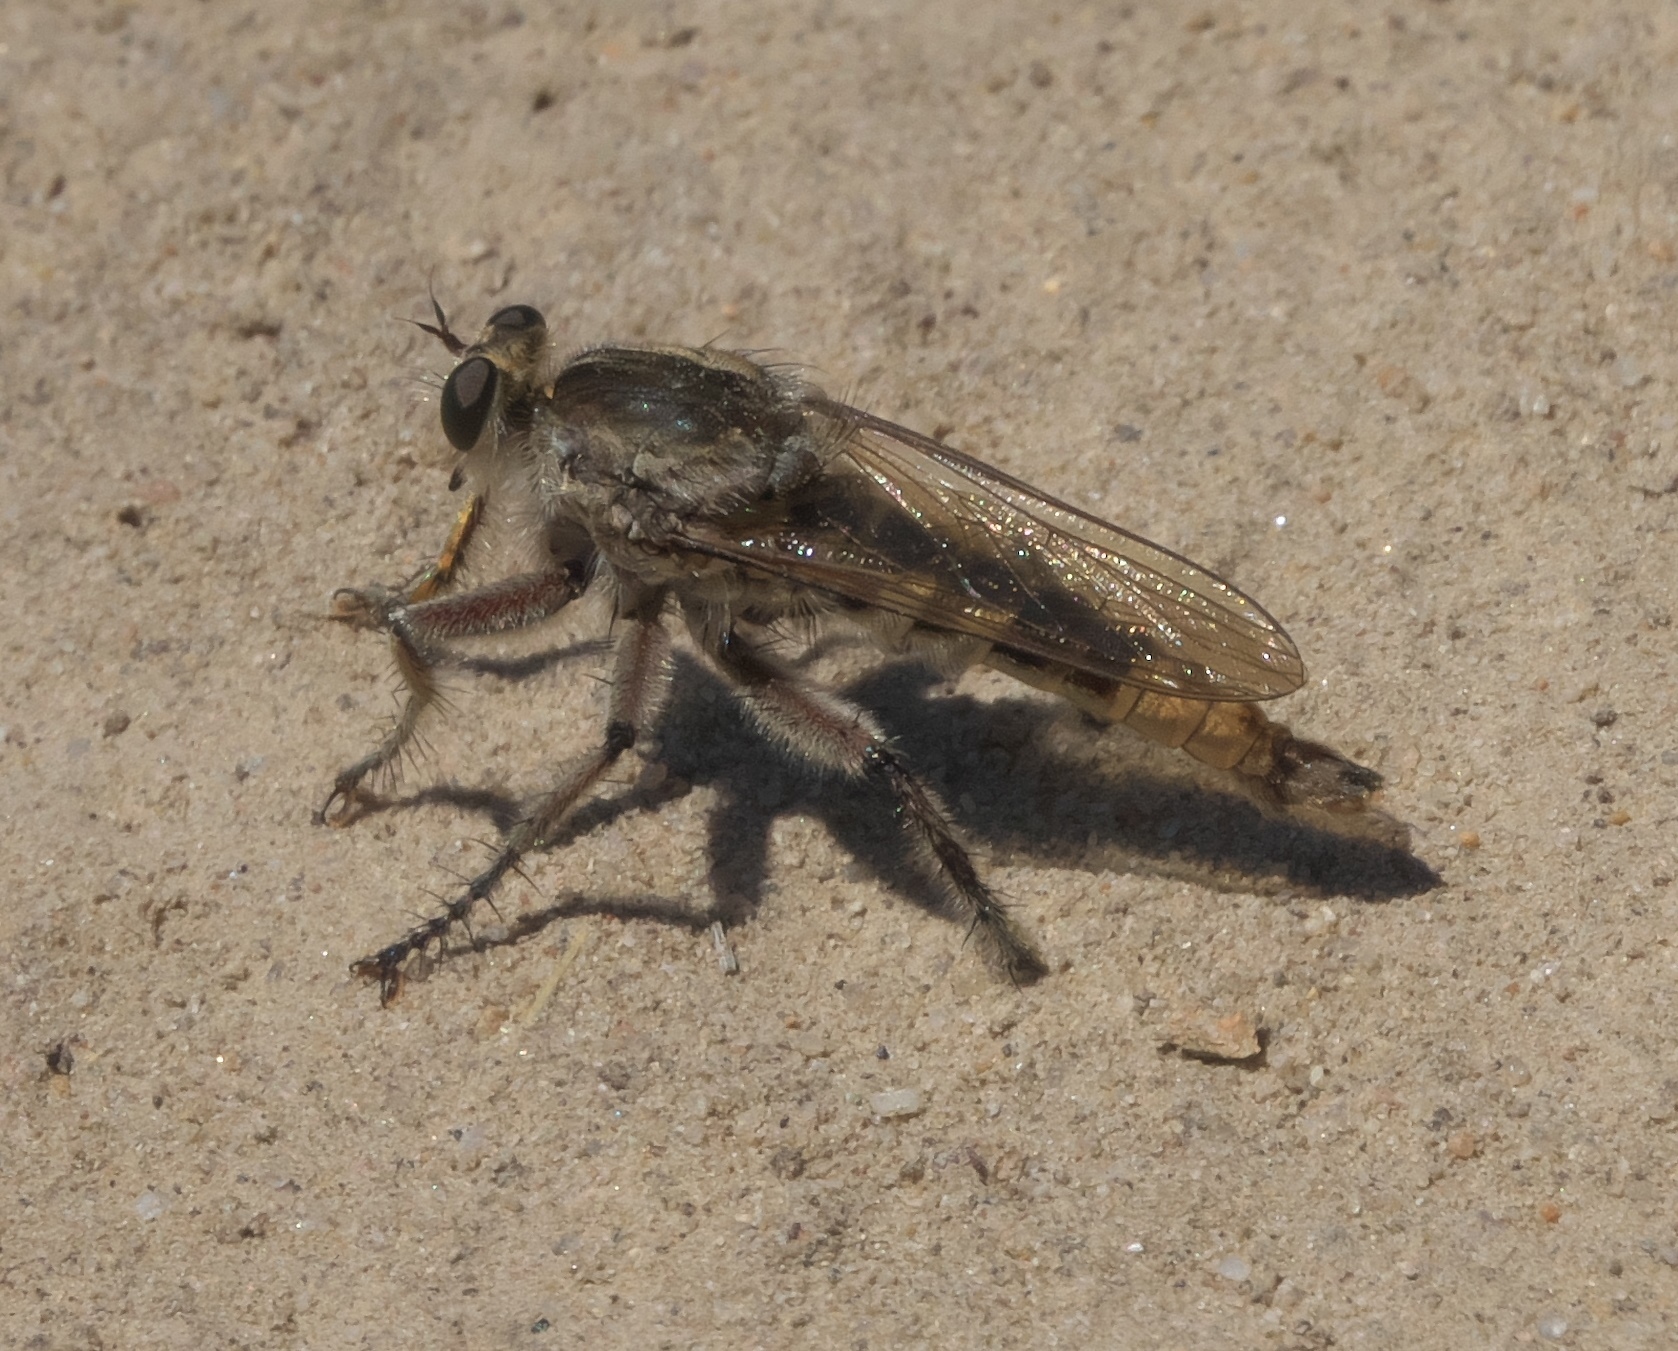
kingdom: Animalia
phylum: Arthropoda
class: Insecta
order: Diptera
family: Asilidae
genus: Triorla
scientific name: Triorla interrupta
